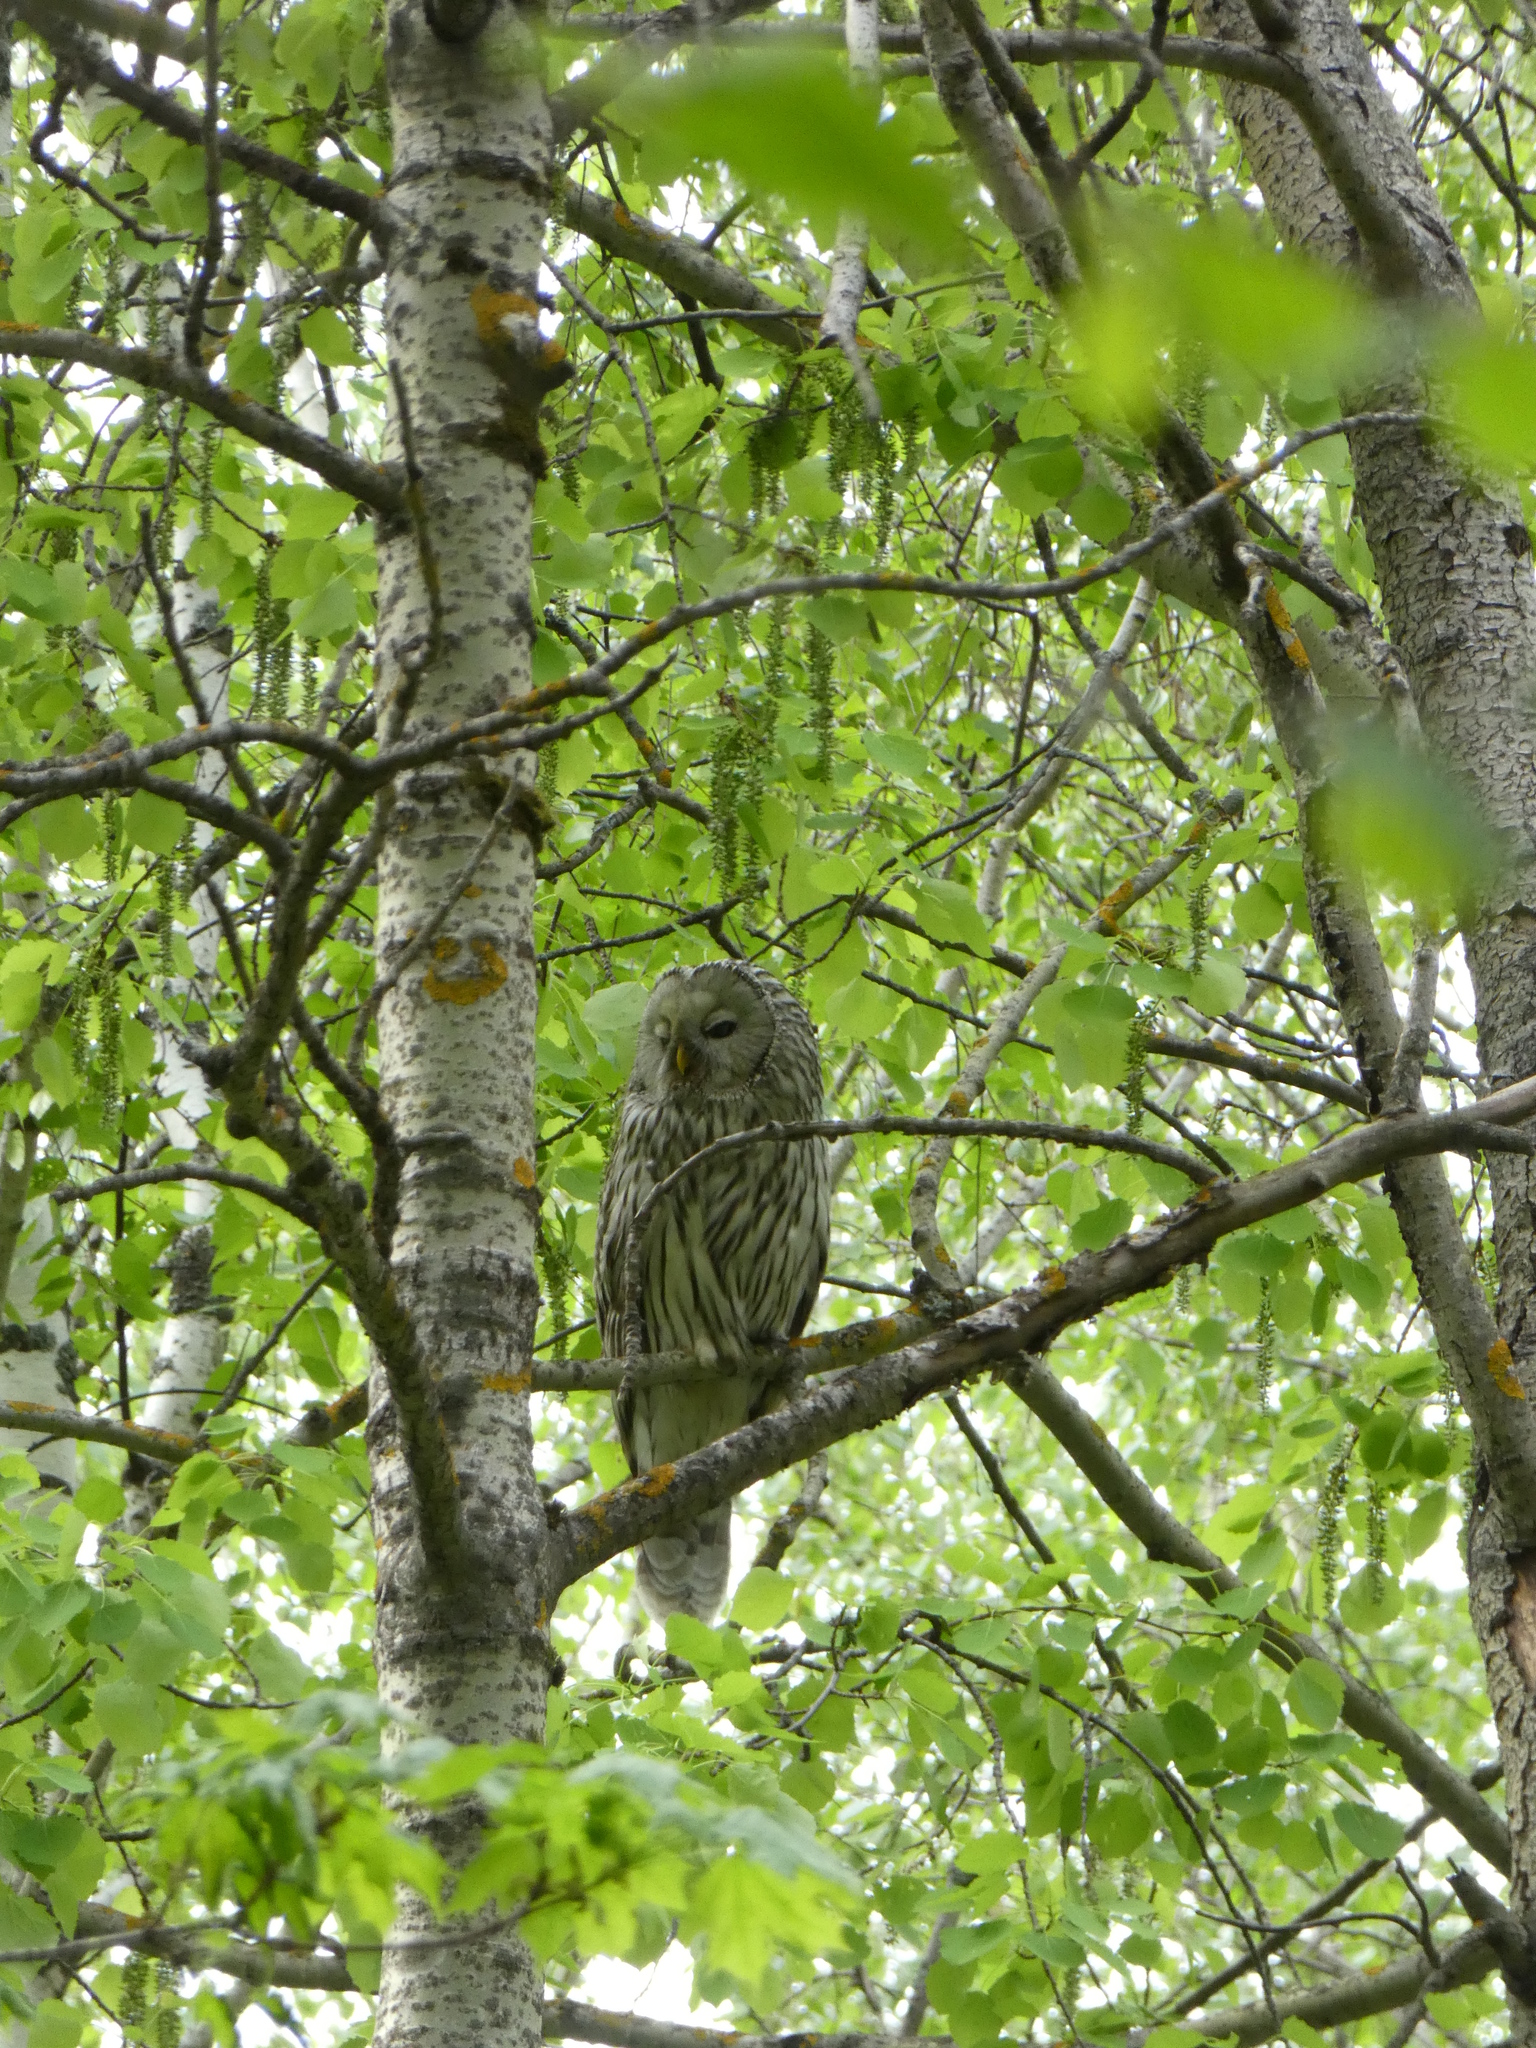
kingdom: Animalia
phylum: Chordata
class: Aves
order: Strigiformes
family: Strigidae
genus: Strix
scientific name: Strix uralensis
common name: Ural owl
